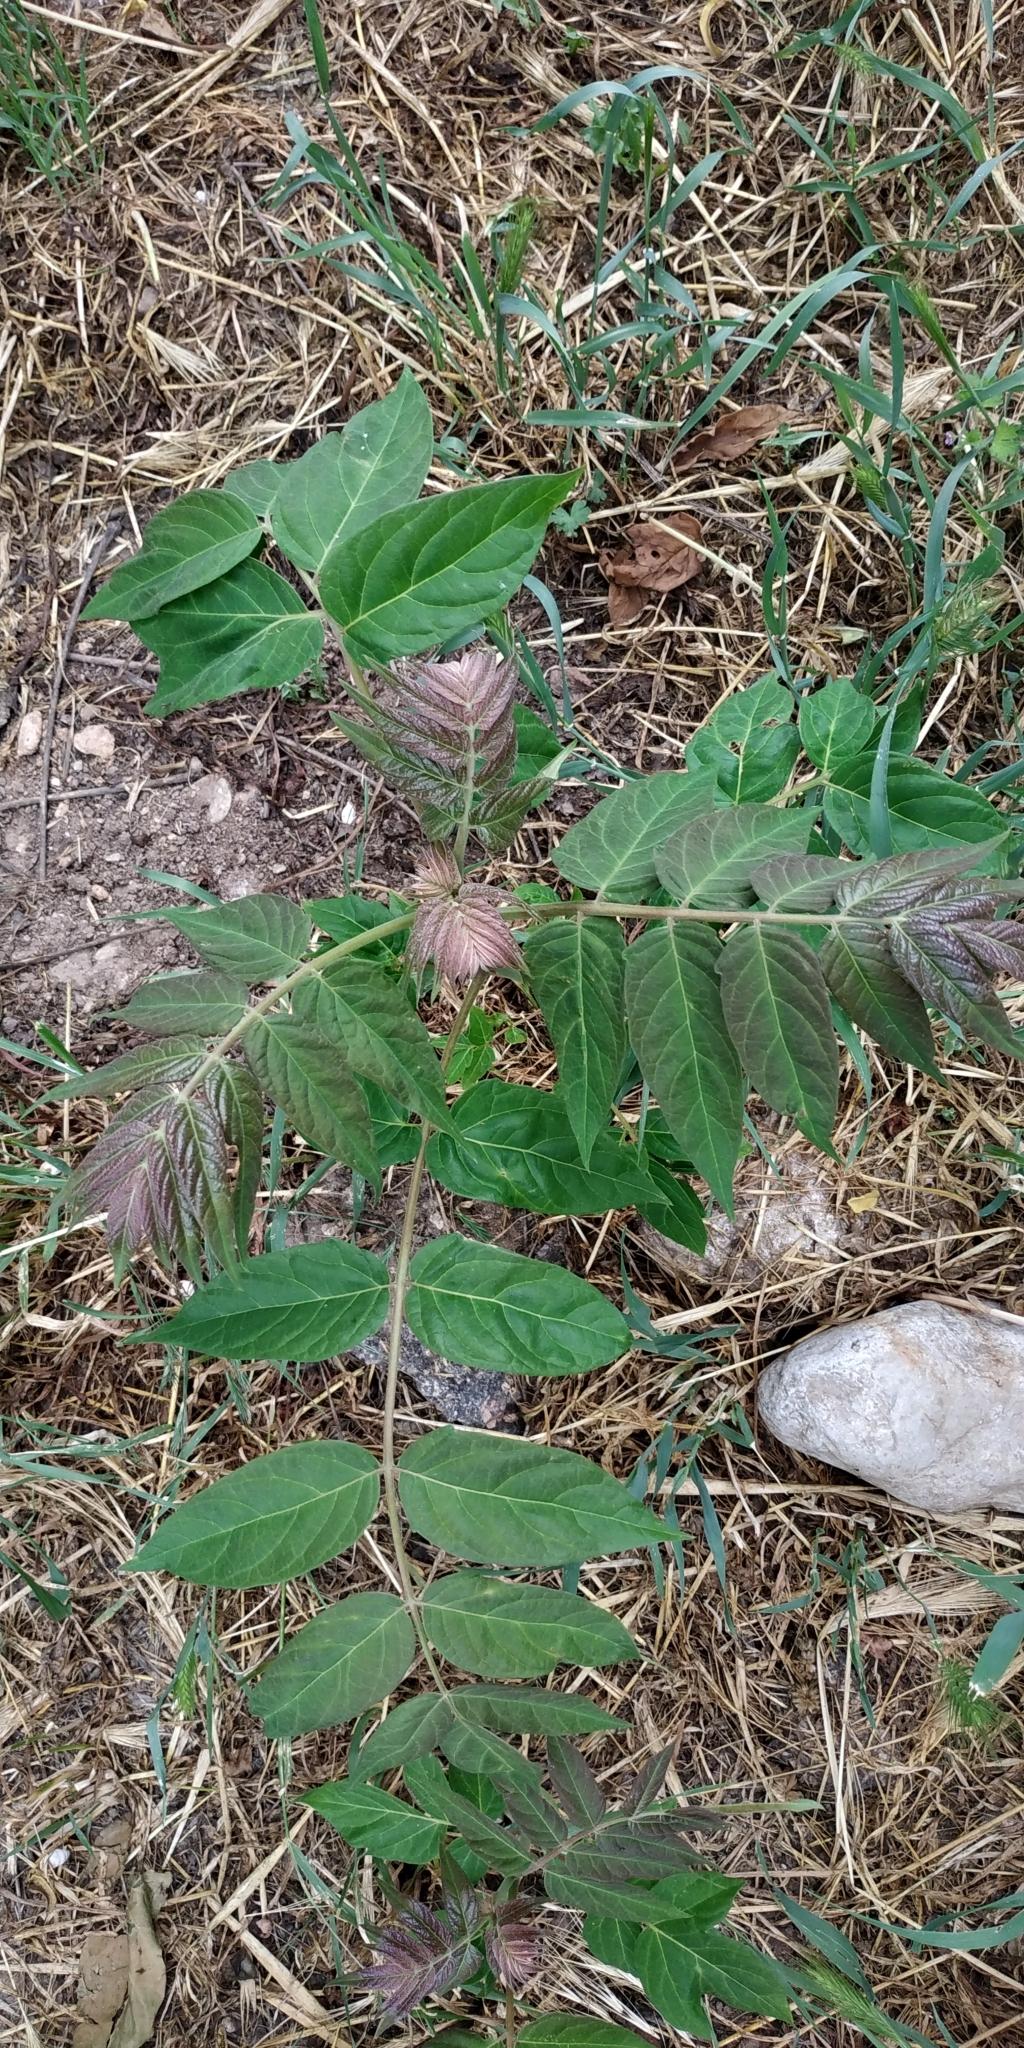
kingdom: Plantae
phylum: Tracheophyta
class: Magnoliopsida
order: Sapindales
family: Simaroubaceae
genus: Ailanthus
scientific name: Ailanthus altissima
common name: Tree-of-heaven
